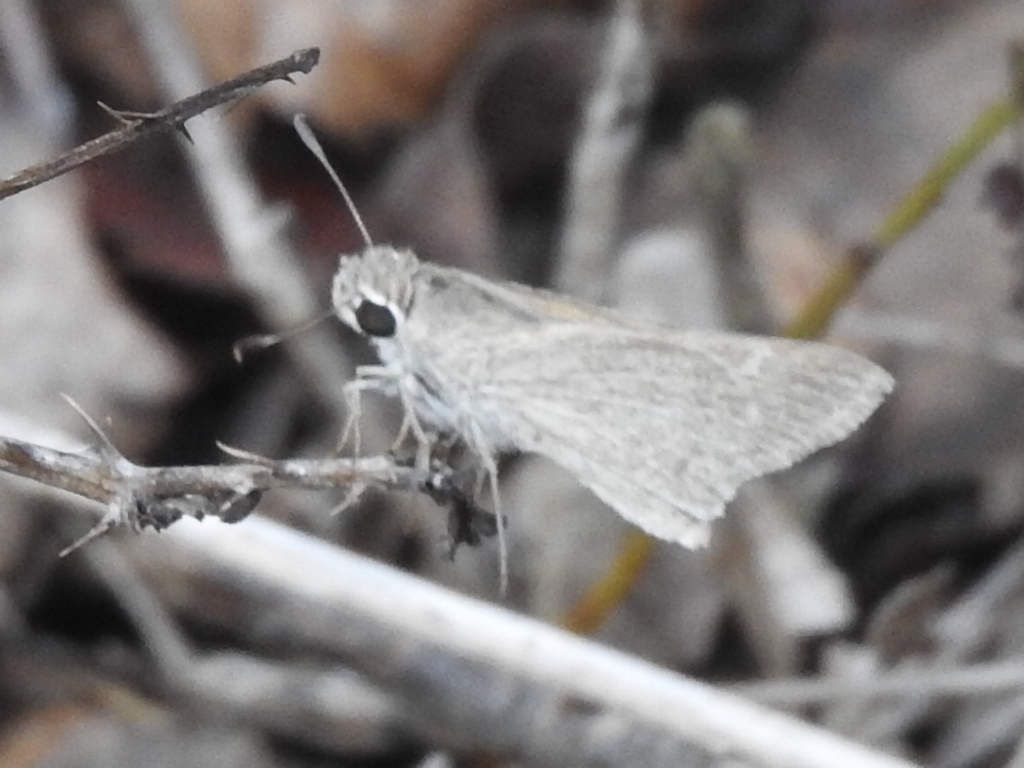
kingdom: Animalia
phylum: Arthropoda
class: Insecta
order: Lepidoptera
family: Hesperiidae
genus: Lerodea
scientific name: Lerodea eufala
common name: Eufala skipper
